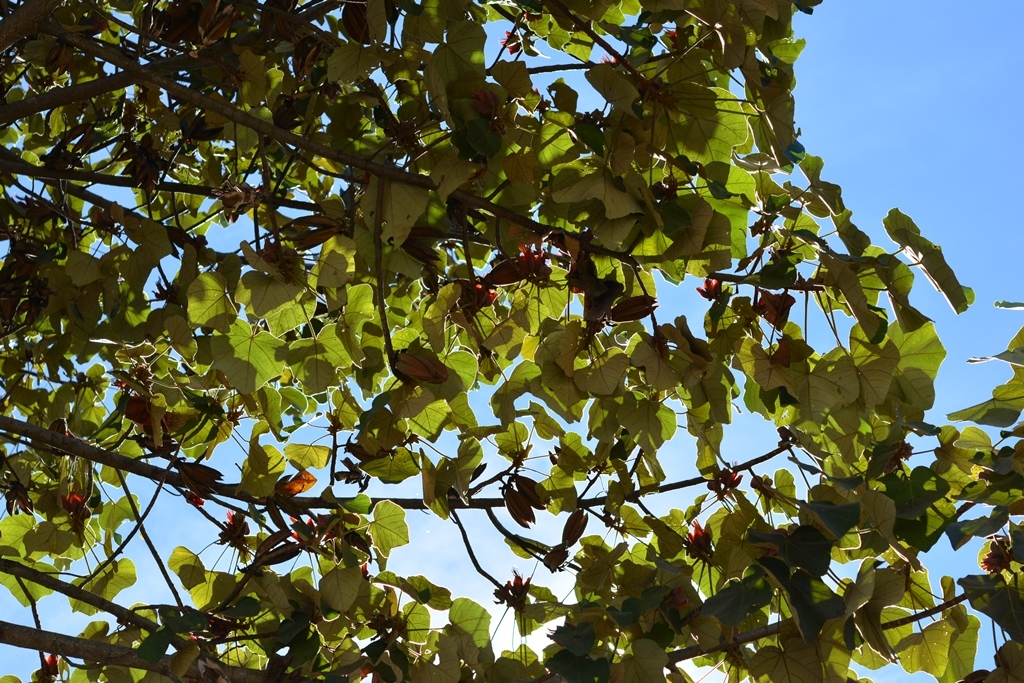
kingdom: Plantae
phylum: Tracheophyta
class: Magnoliopsida
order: Malvales
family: Malvaceae
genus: Chiranthodendron
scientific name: Chiranthodendron pentadactylon
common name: Mexican-hat-plant
